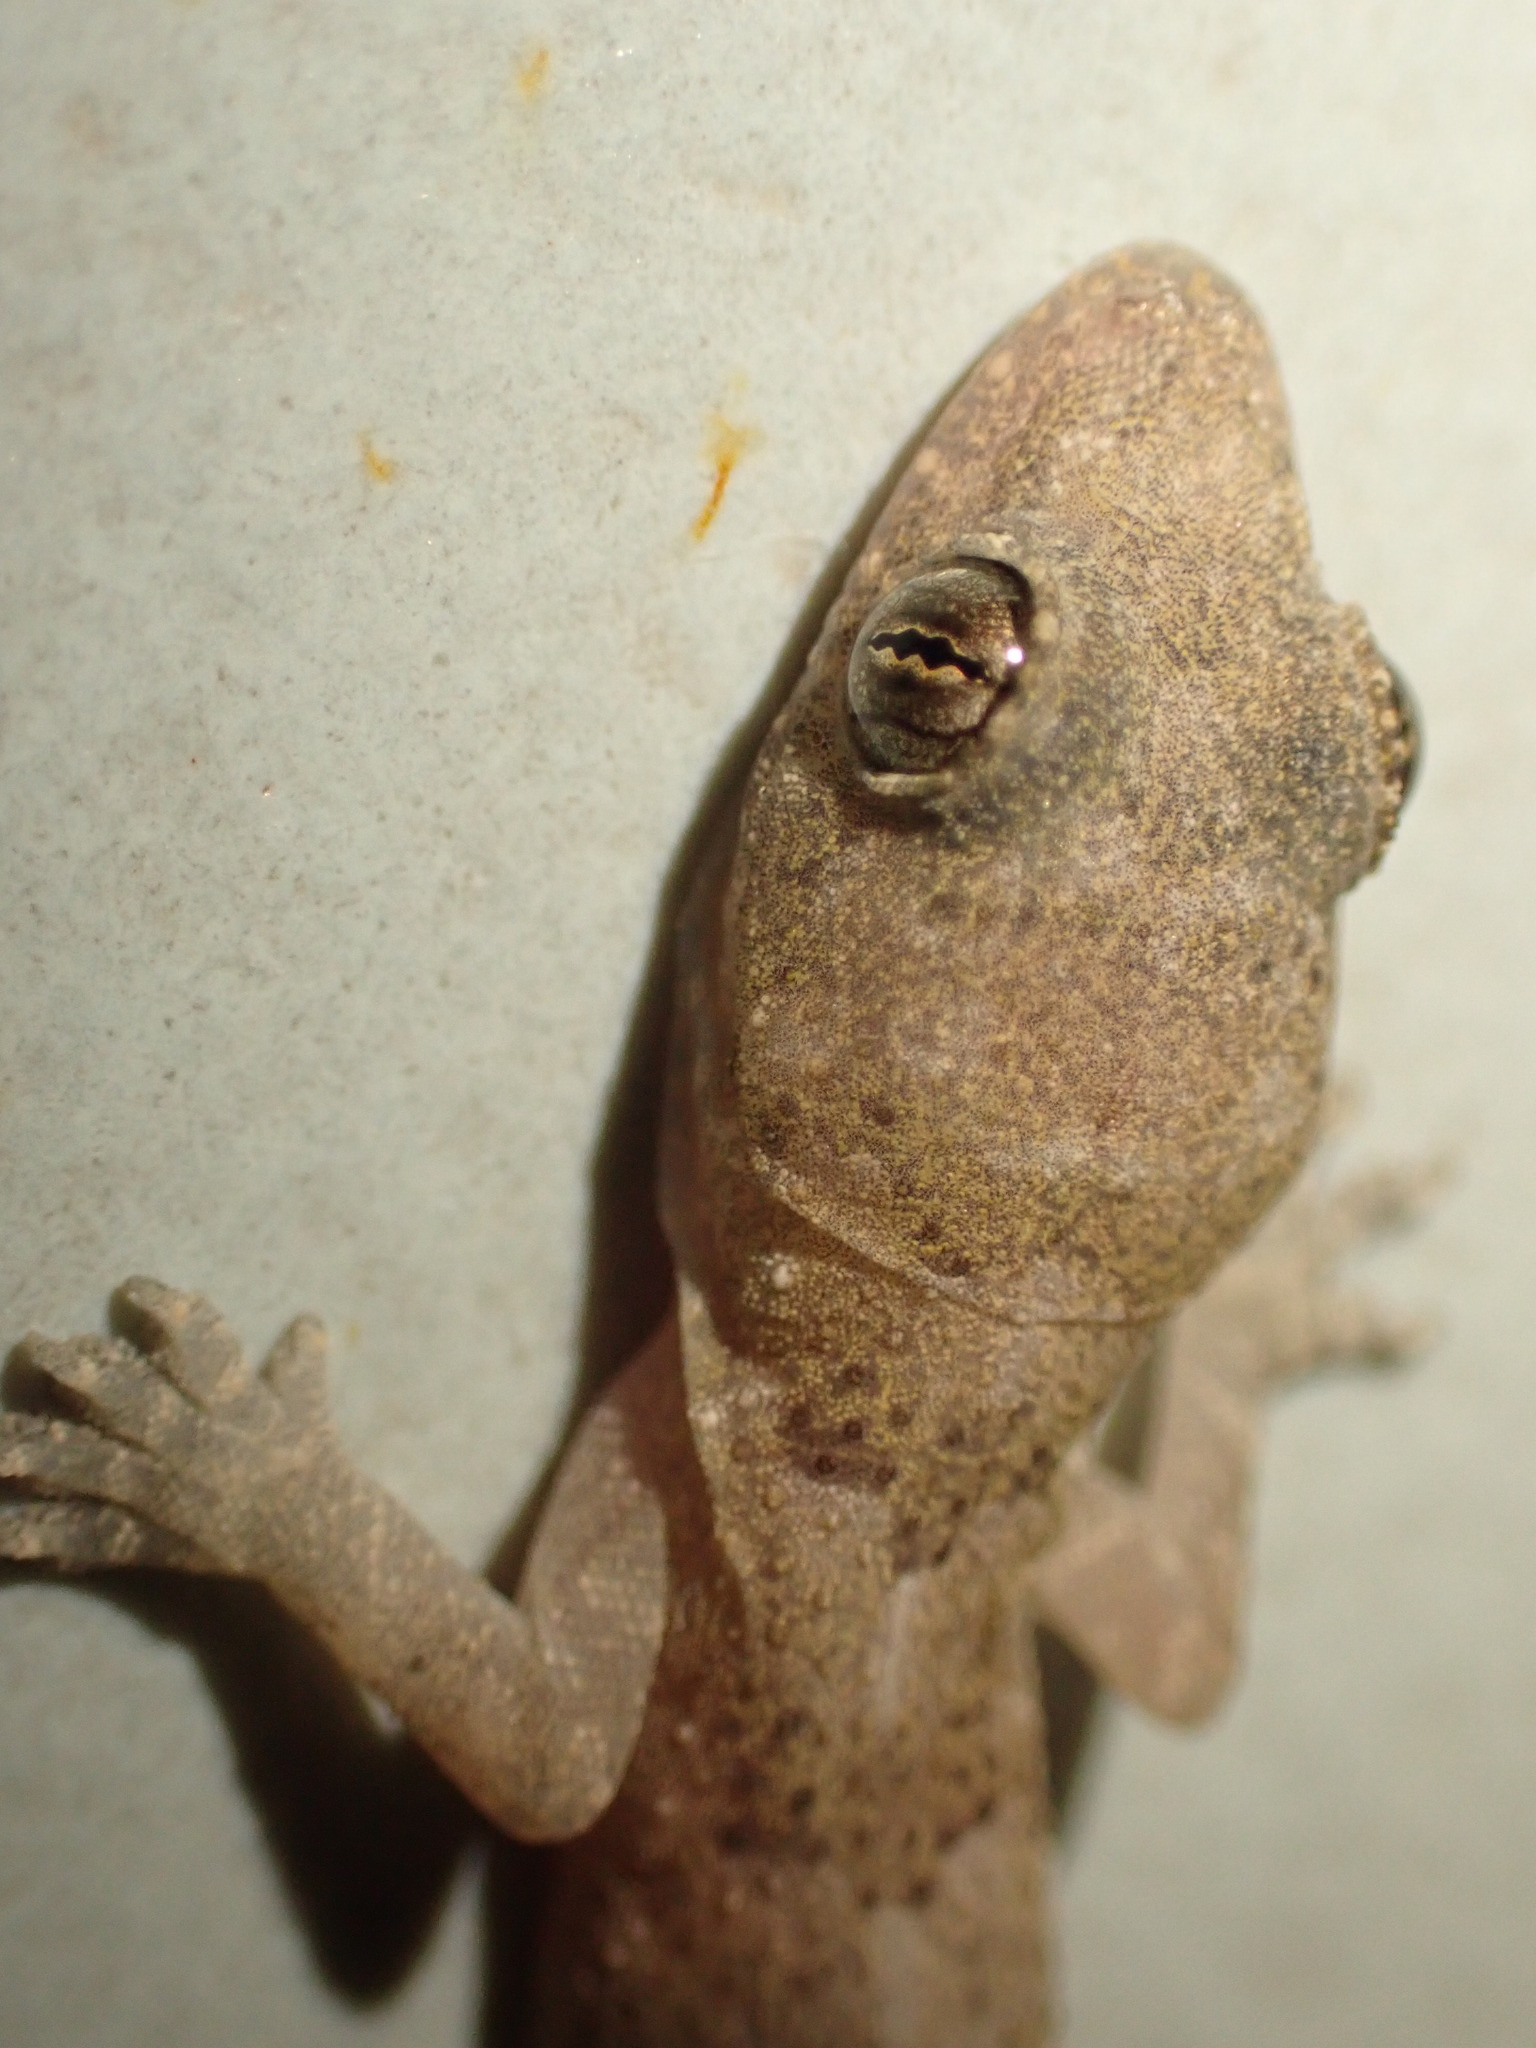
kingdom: Animalia
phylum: Chordata
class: Squamata
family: Gekkonidae
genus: Hemidactylus
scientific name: Hemidactylus mabouia
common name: House gecko
